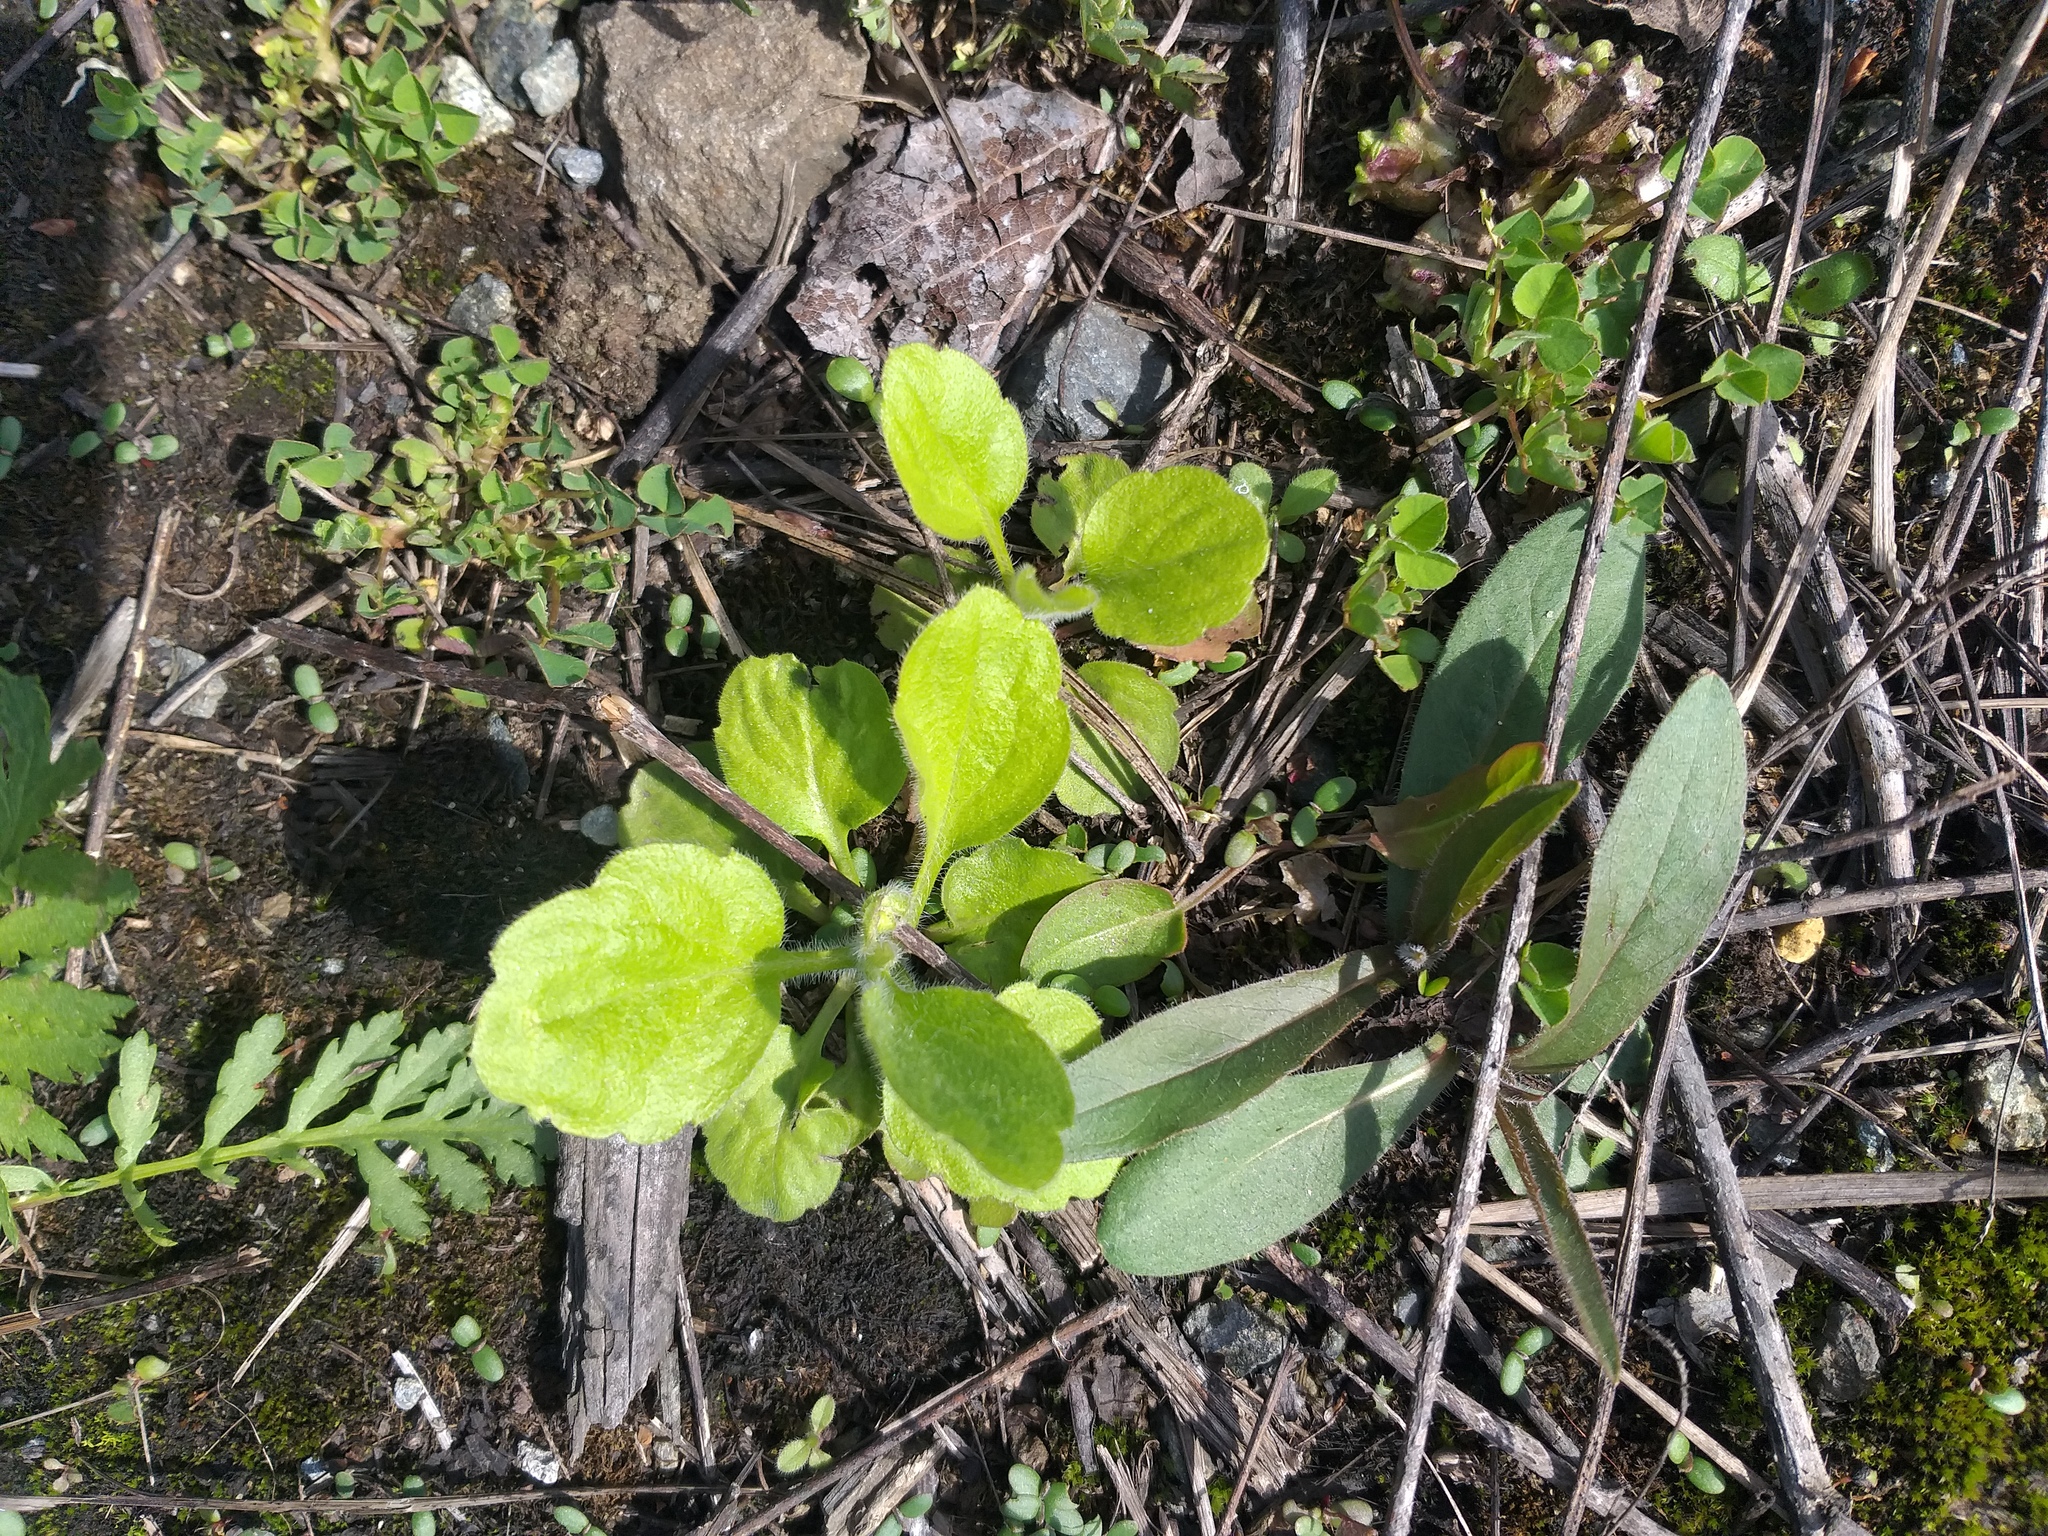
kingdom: Plantae
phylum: Tracheophyta
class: Magnoliopsida
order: Asterales
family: Asteraceae
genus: Erigeron
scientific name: Erigeron annuus
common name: Tall fleabane
